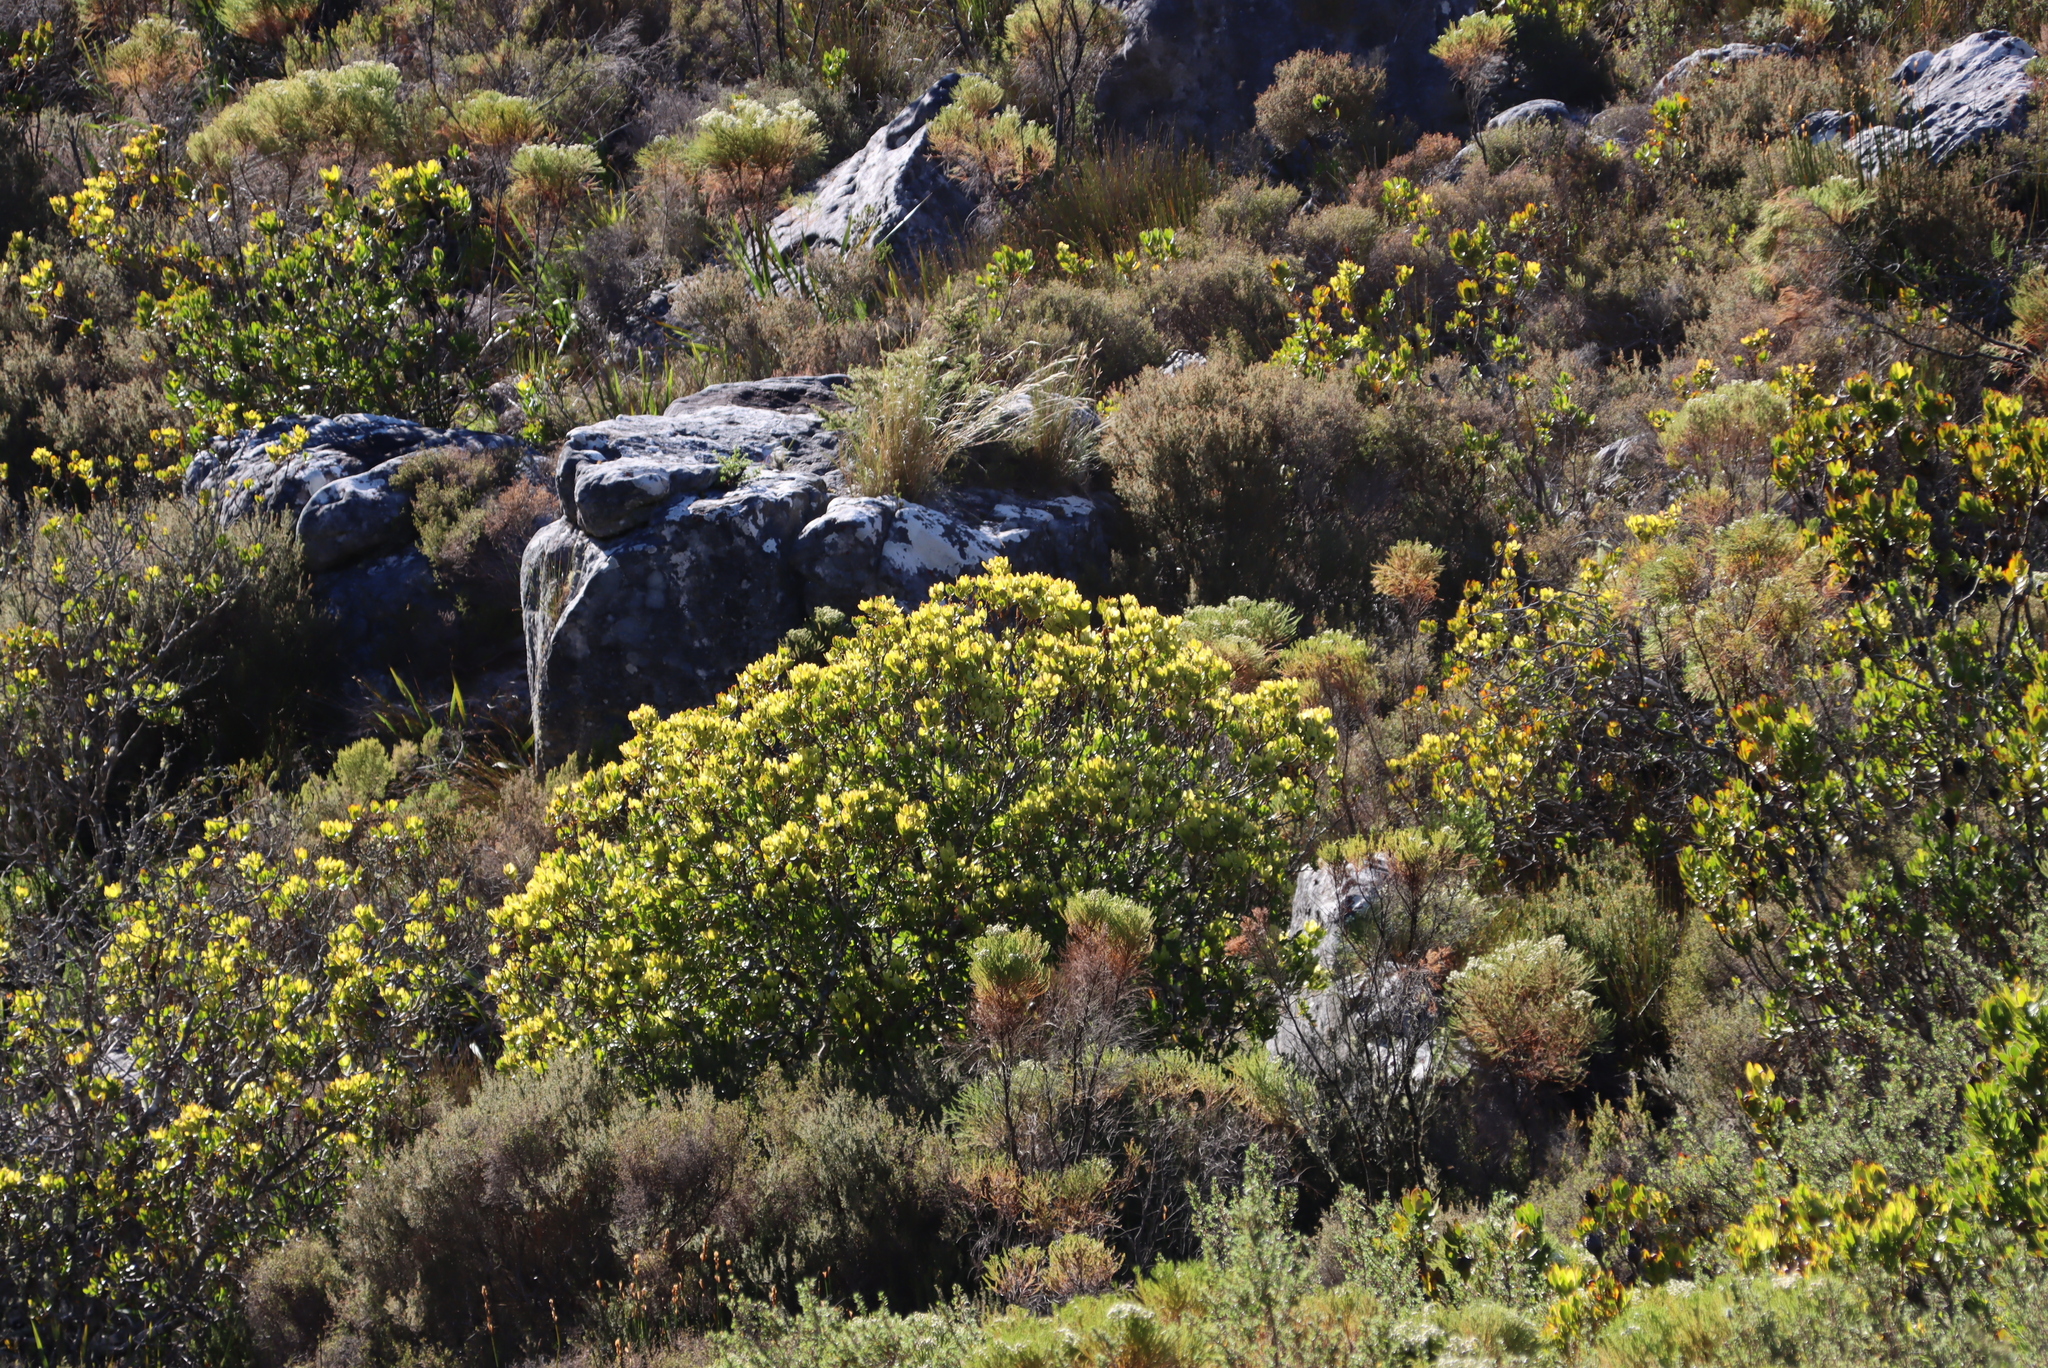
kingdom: Plantae
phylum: Tracheophyta
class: Magnoliopsida
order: Proteales
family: Proteaceae
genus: Leucadendron
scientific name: Leucadendron strobilinum
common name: Mountain rose
